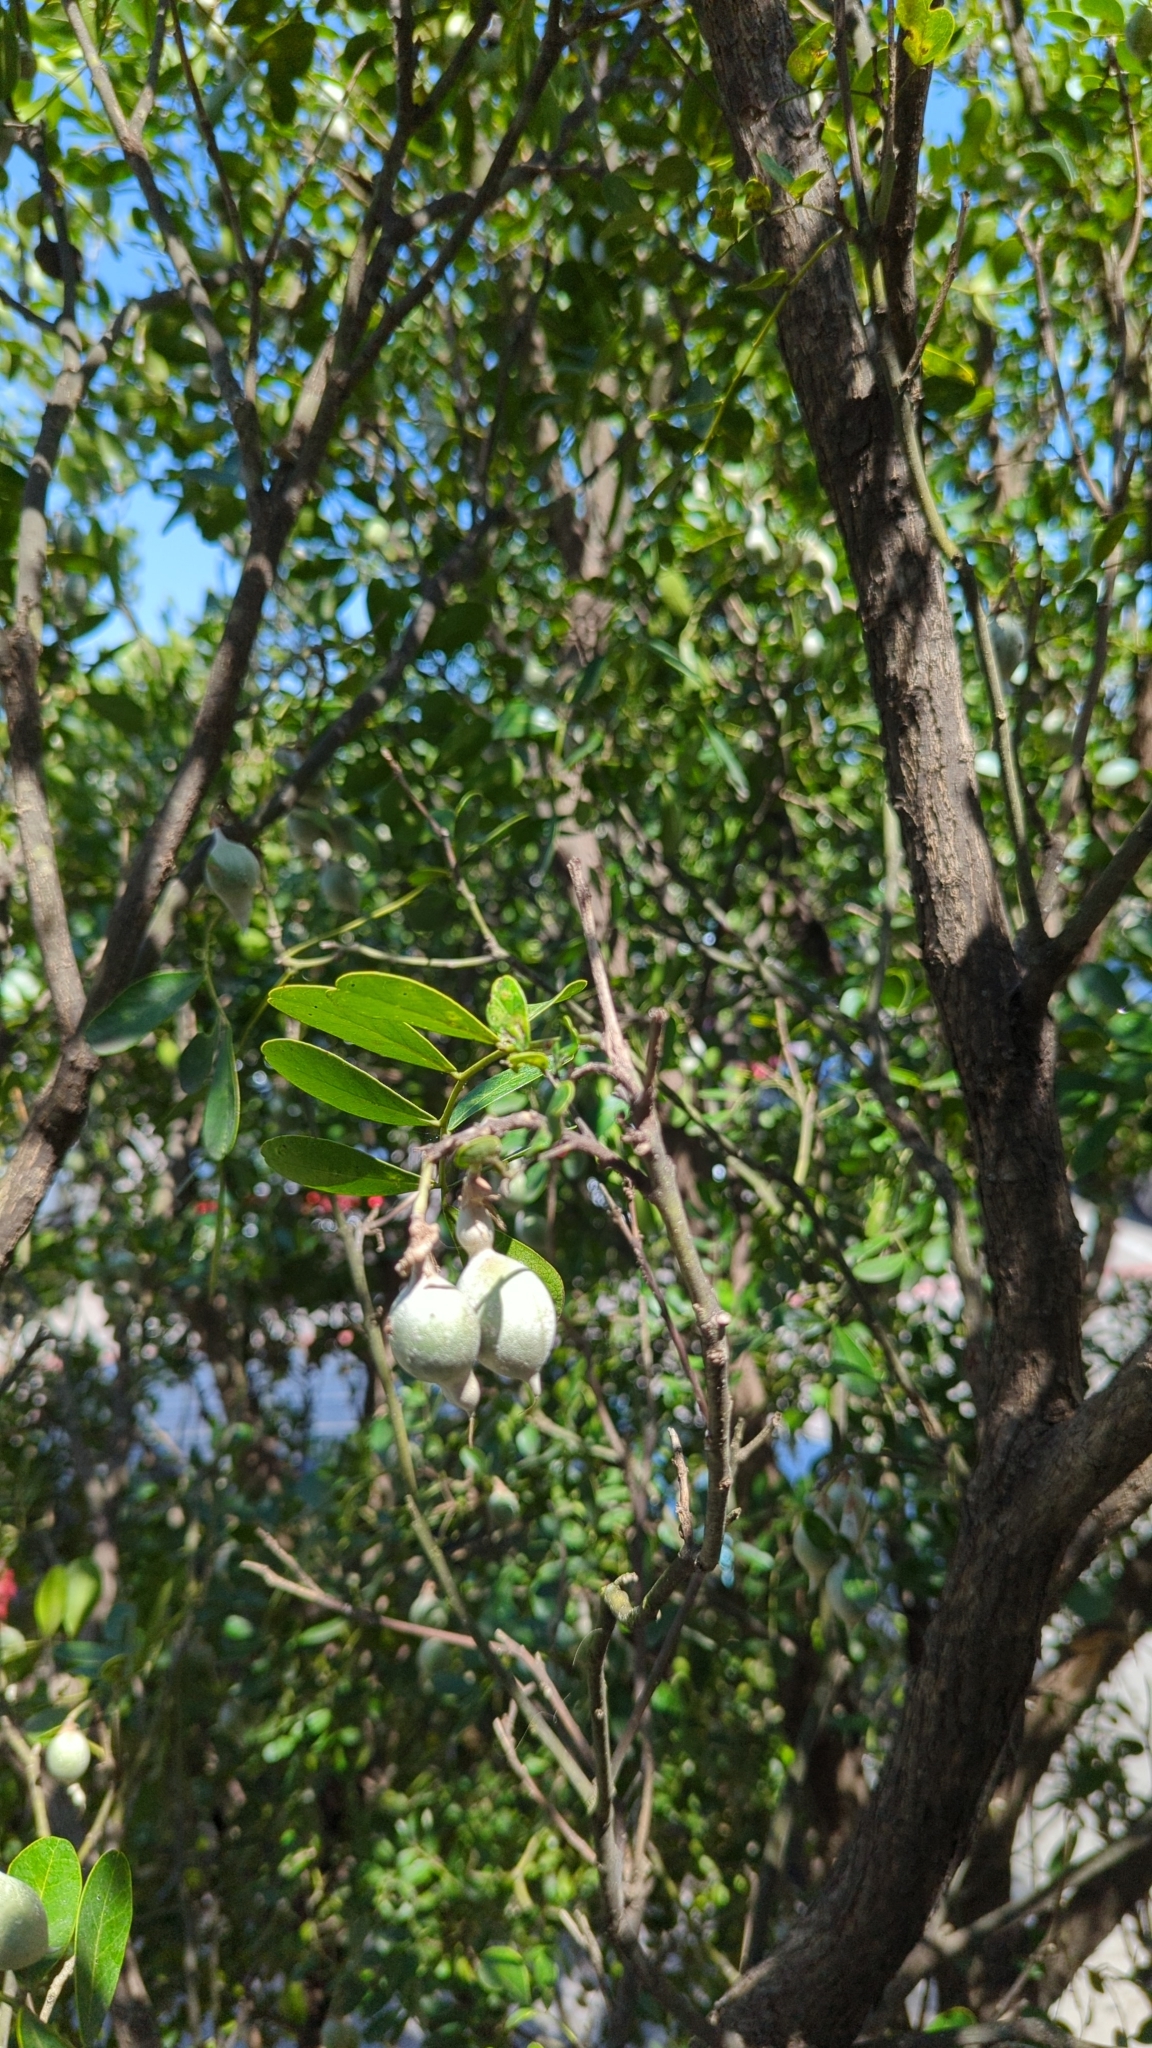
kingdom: Plantae
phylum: Tracheophyta
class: Magnoliopsida
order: Fabales
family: Fabaceae
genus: Dermatophyllum
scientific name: Dermatophyllum secundiflorum
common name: Texas-mountain-laurel
